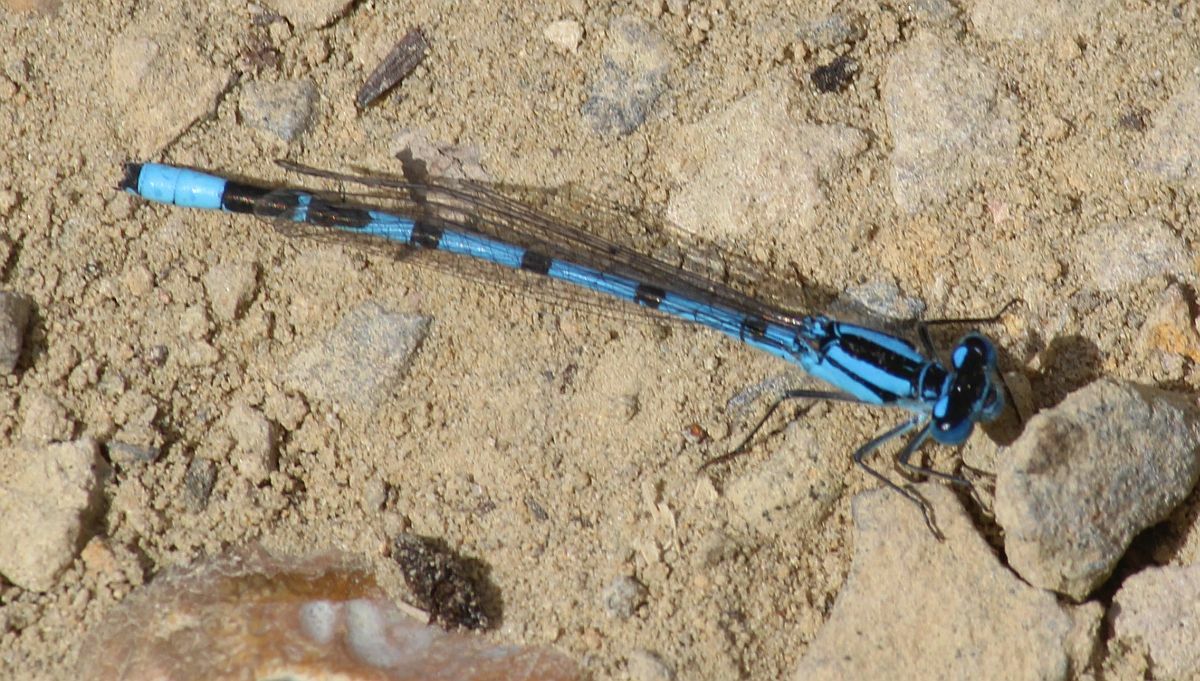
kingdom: Animalia
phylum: Arthropoda
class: Insecta
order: Odonata
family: Coenagrionidae
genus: Enallagma
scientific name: Enallagma cyathigerum
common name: Common blue damselfly
